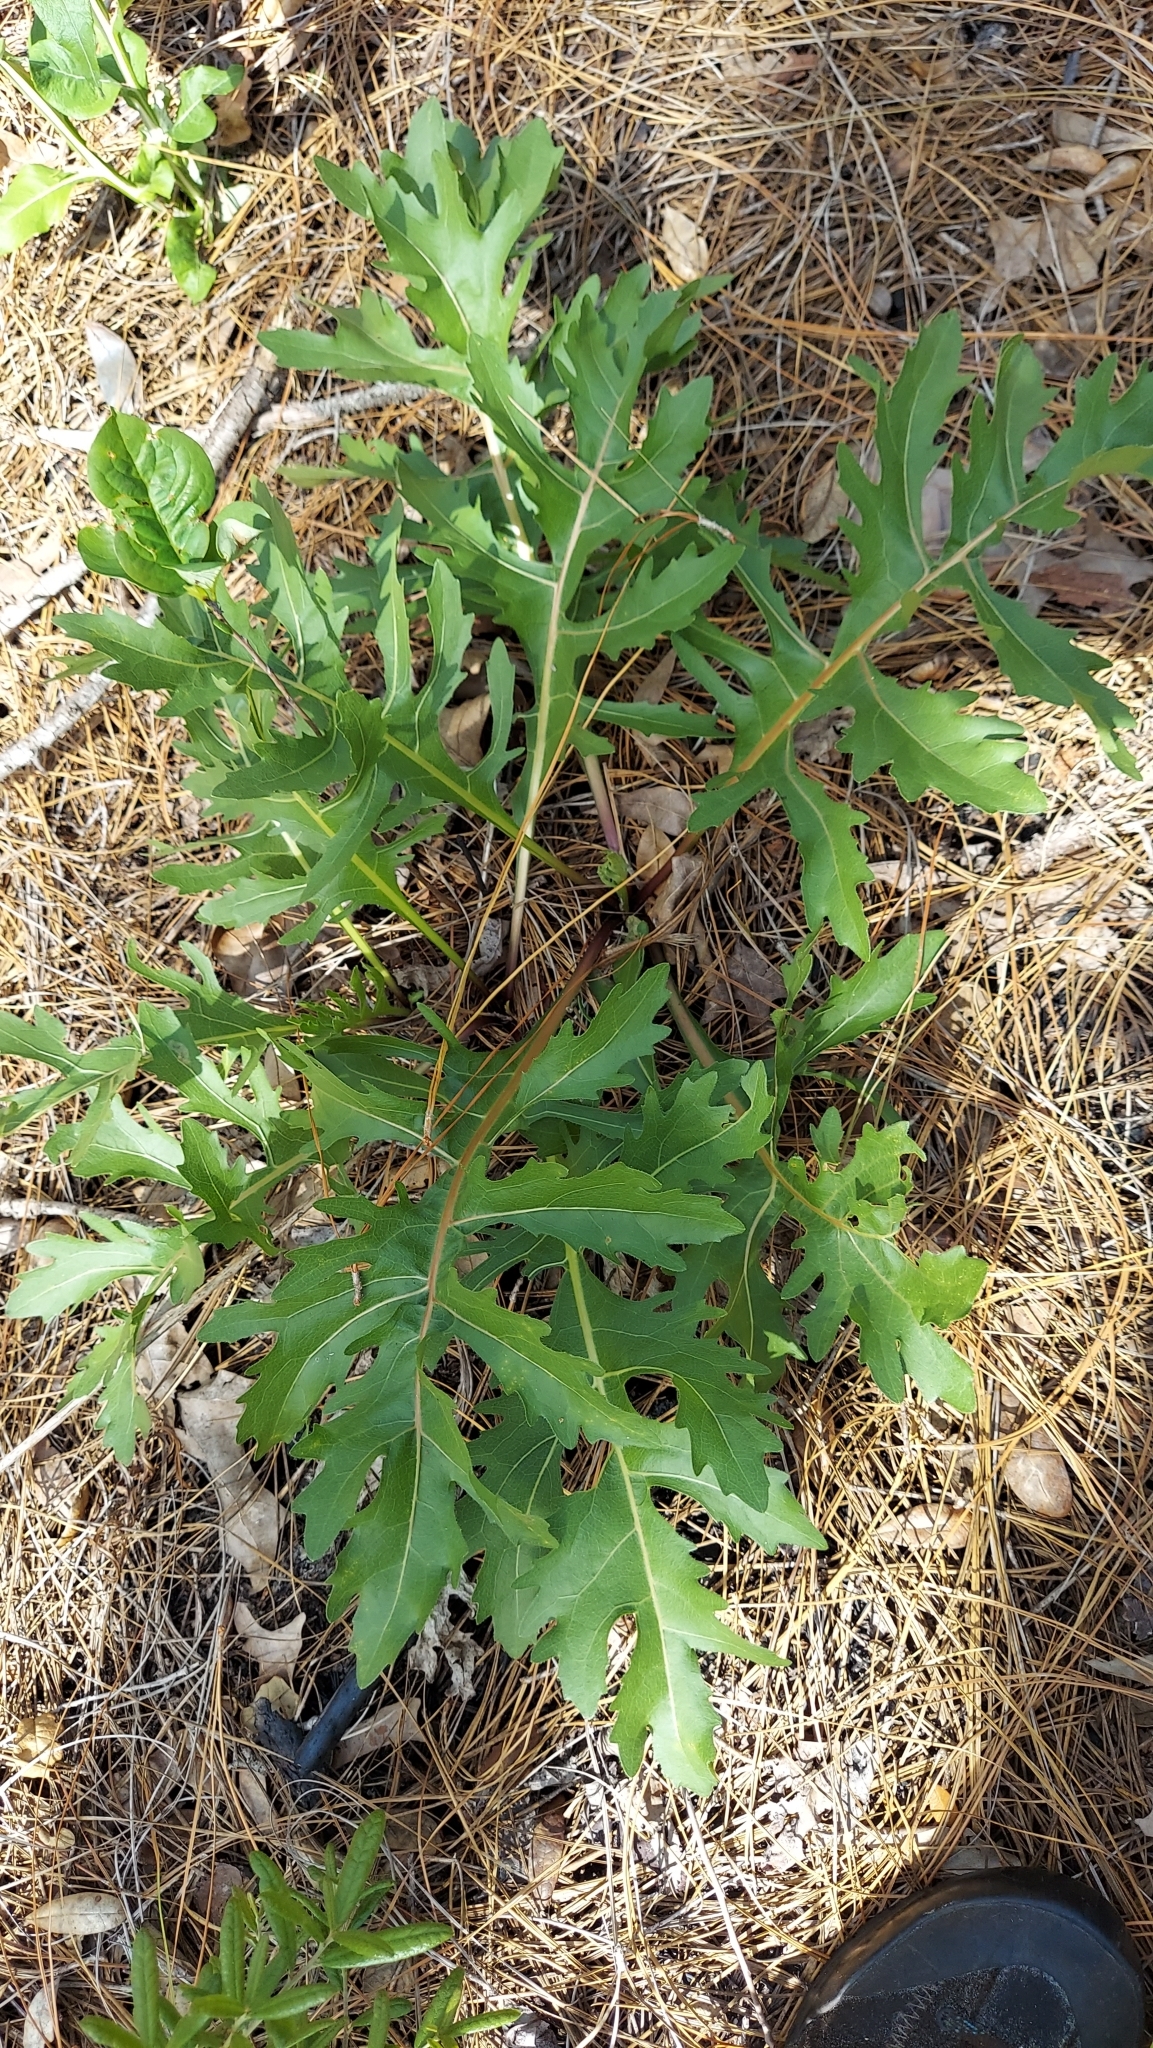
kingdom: Plantae
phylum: Tracheophyta
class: Magnoliopsida
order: Asterales
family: Asteraceae
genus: Silphium
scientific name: Silphium compositum
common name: Lesser basal-leaf rosinweed
